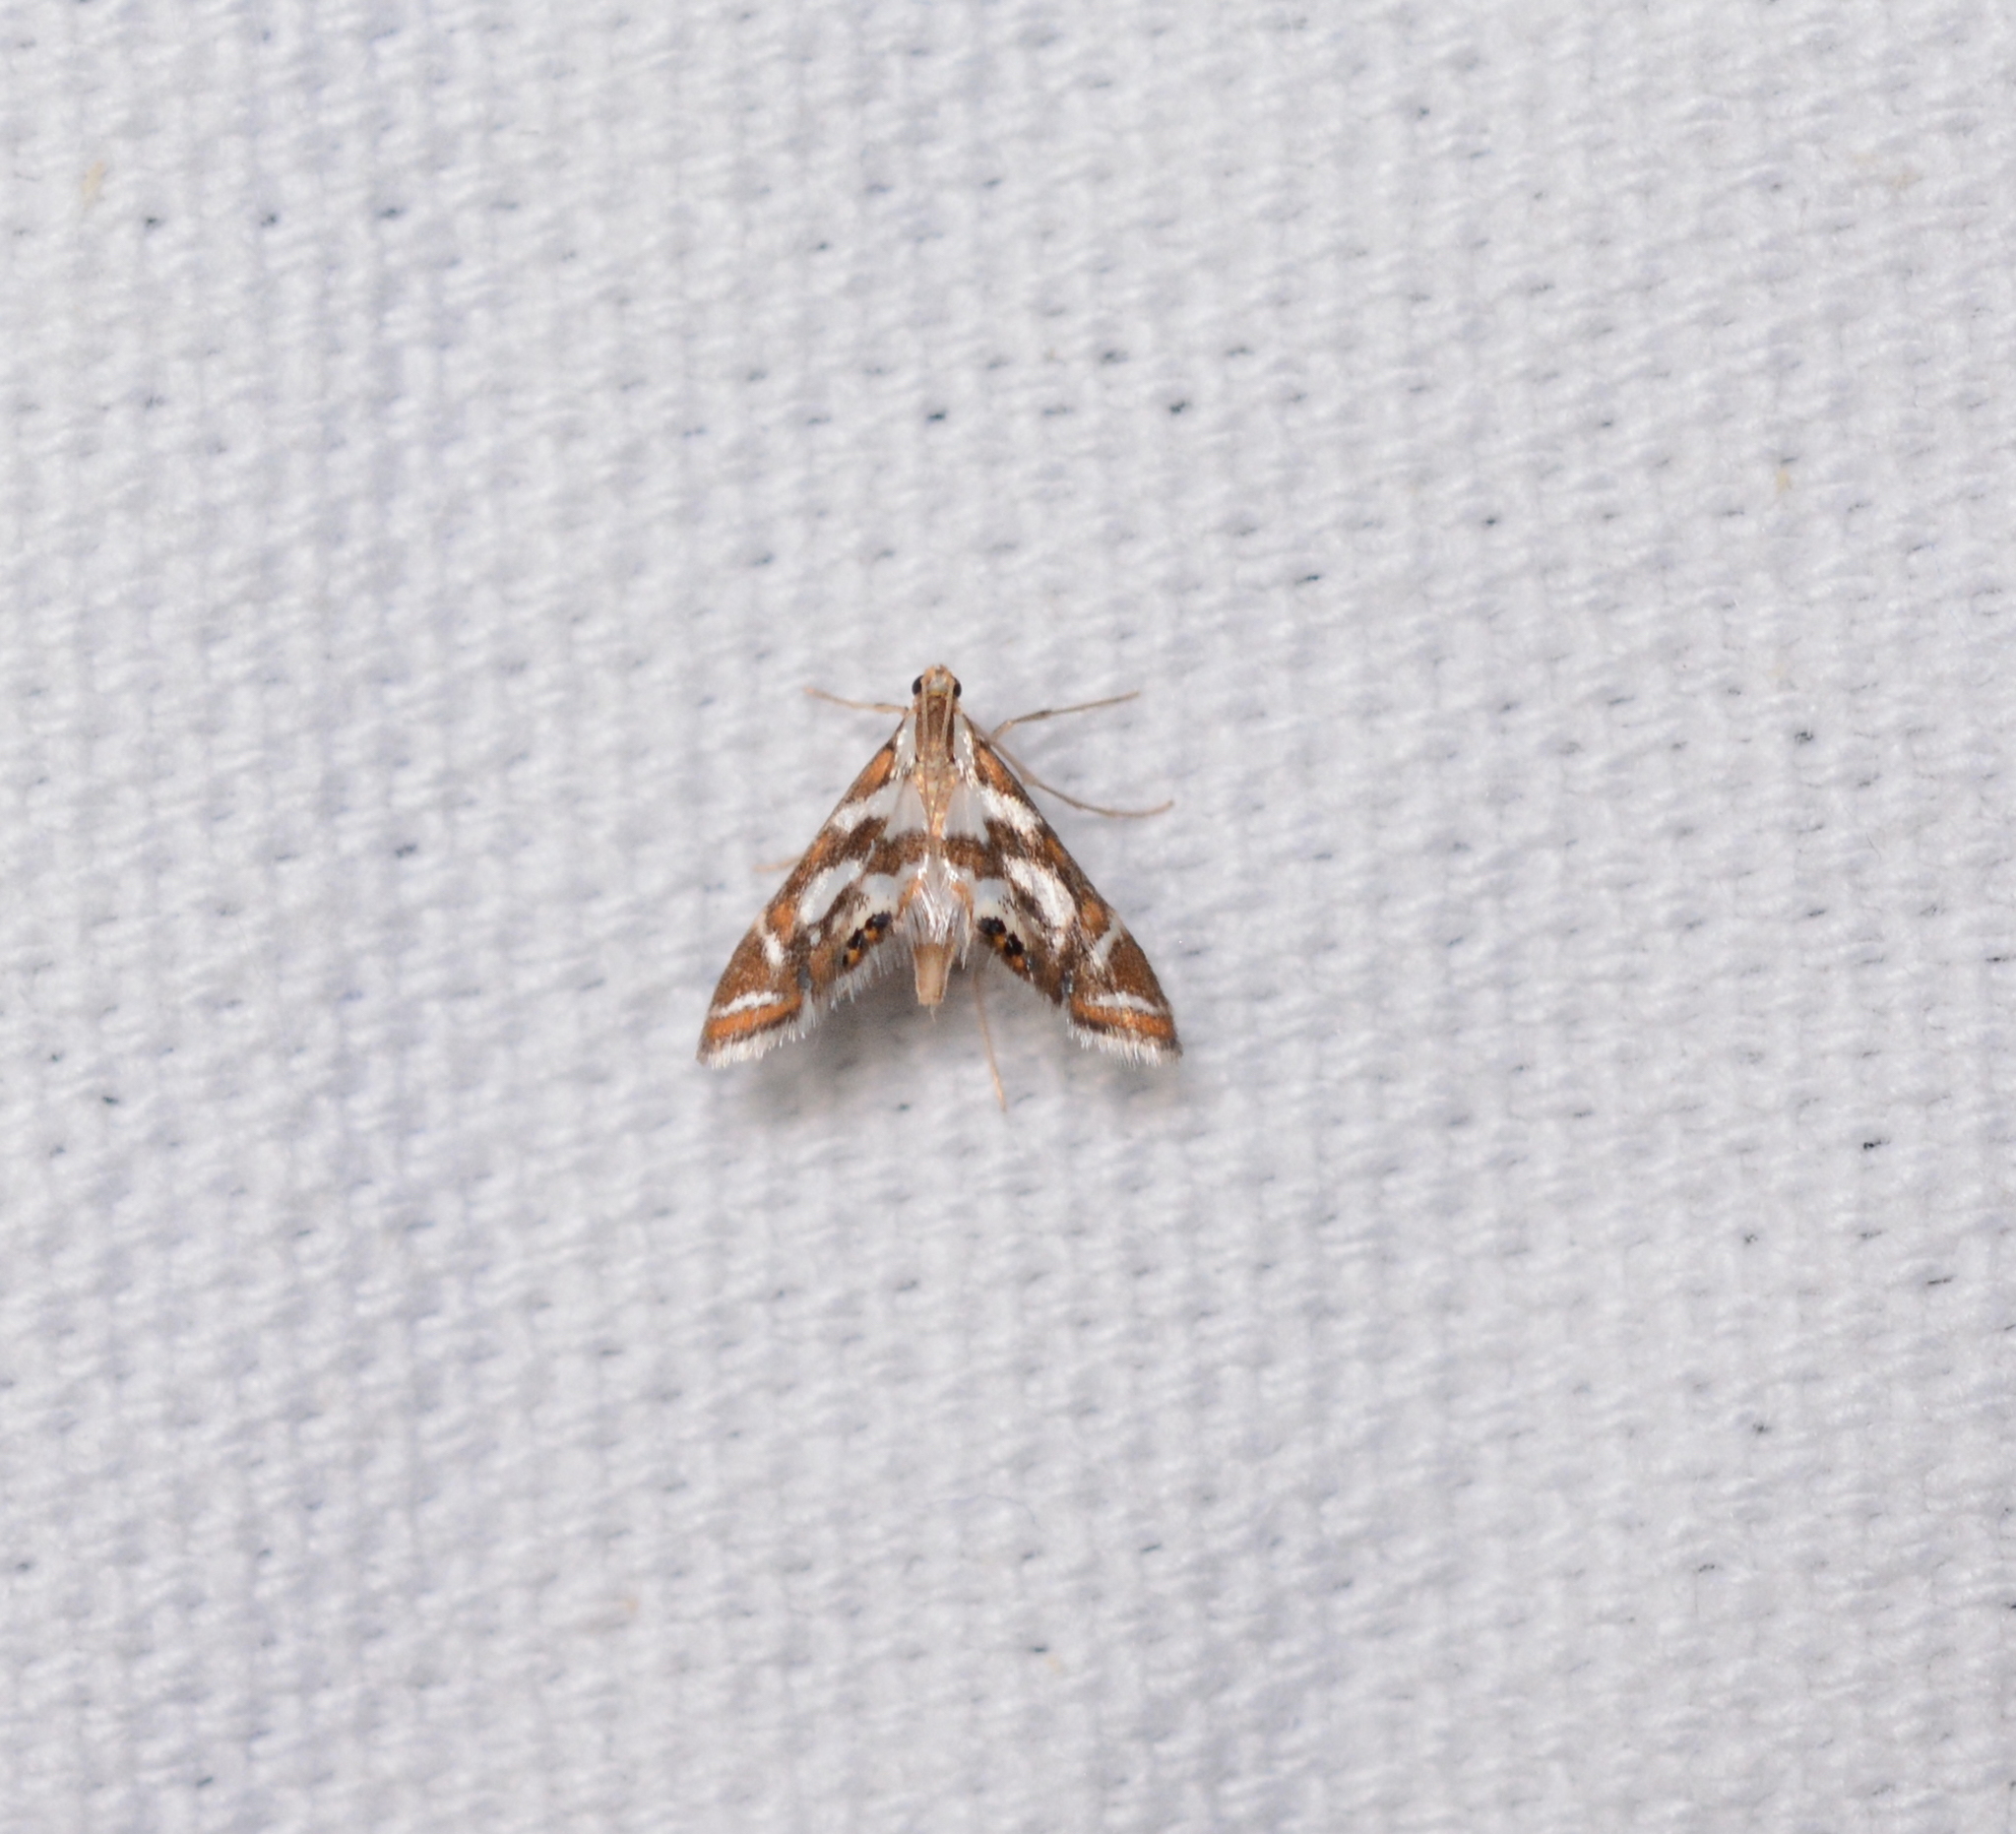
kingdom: Animalia
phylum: Arthropoda
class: Insecta
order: Lepidoptera
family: Crambidae
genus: Chrysendeton
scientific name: Chrysendeton medicinalis
